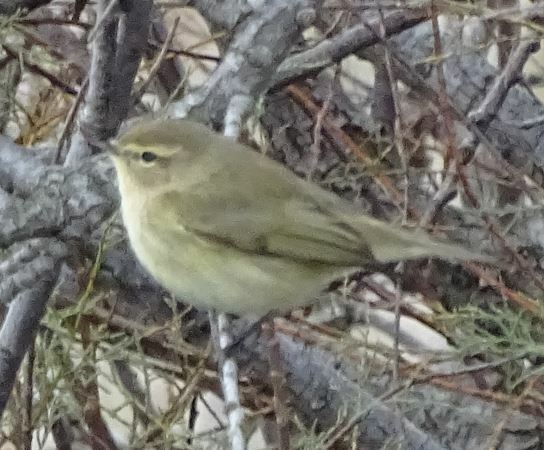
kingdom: Animalia
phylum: Chordata
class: Aves
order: Passeriformes
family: Phylloscopidae
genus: Phylloscopus
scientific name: Phylloscopus collybita
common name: Common chiffchaff
